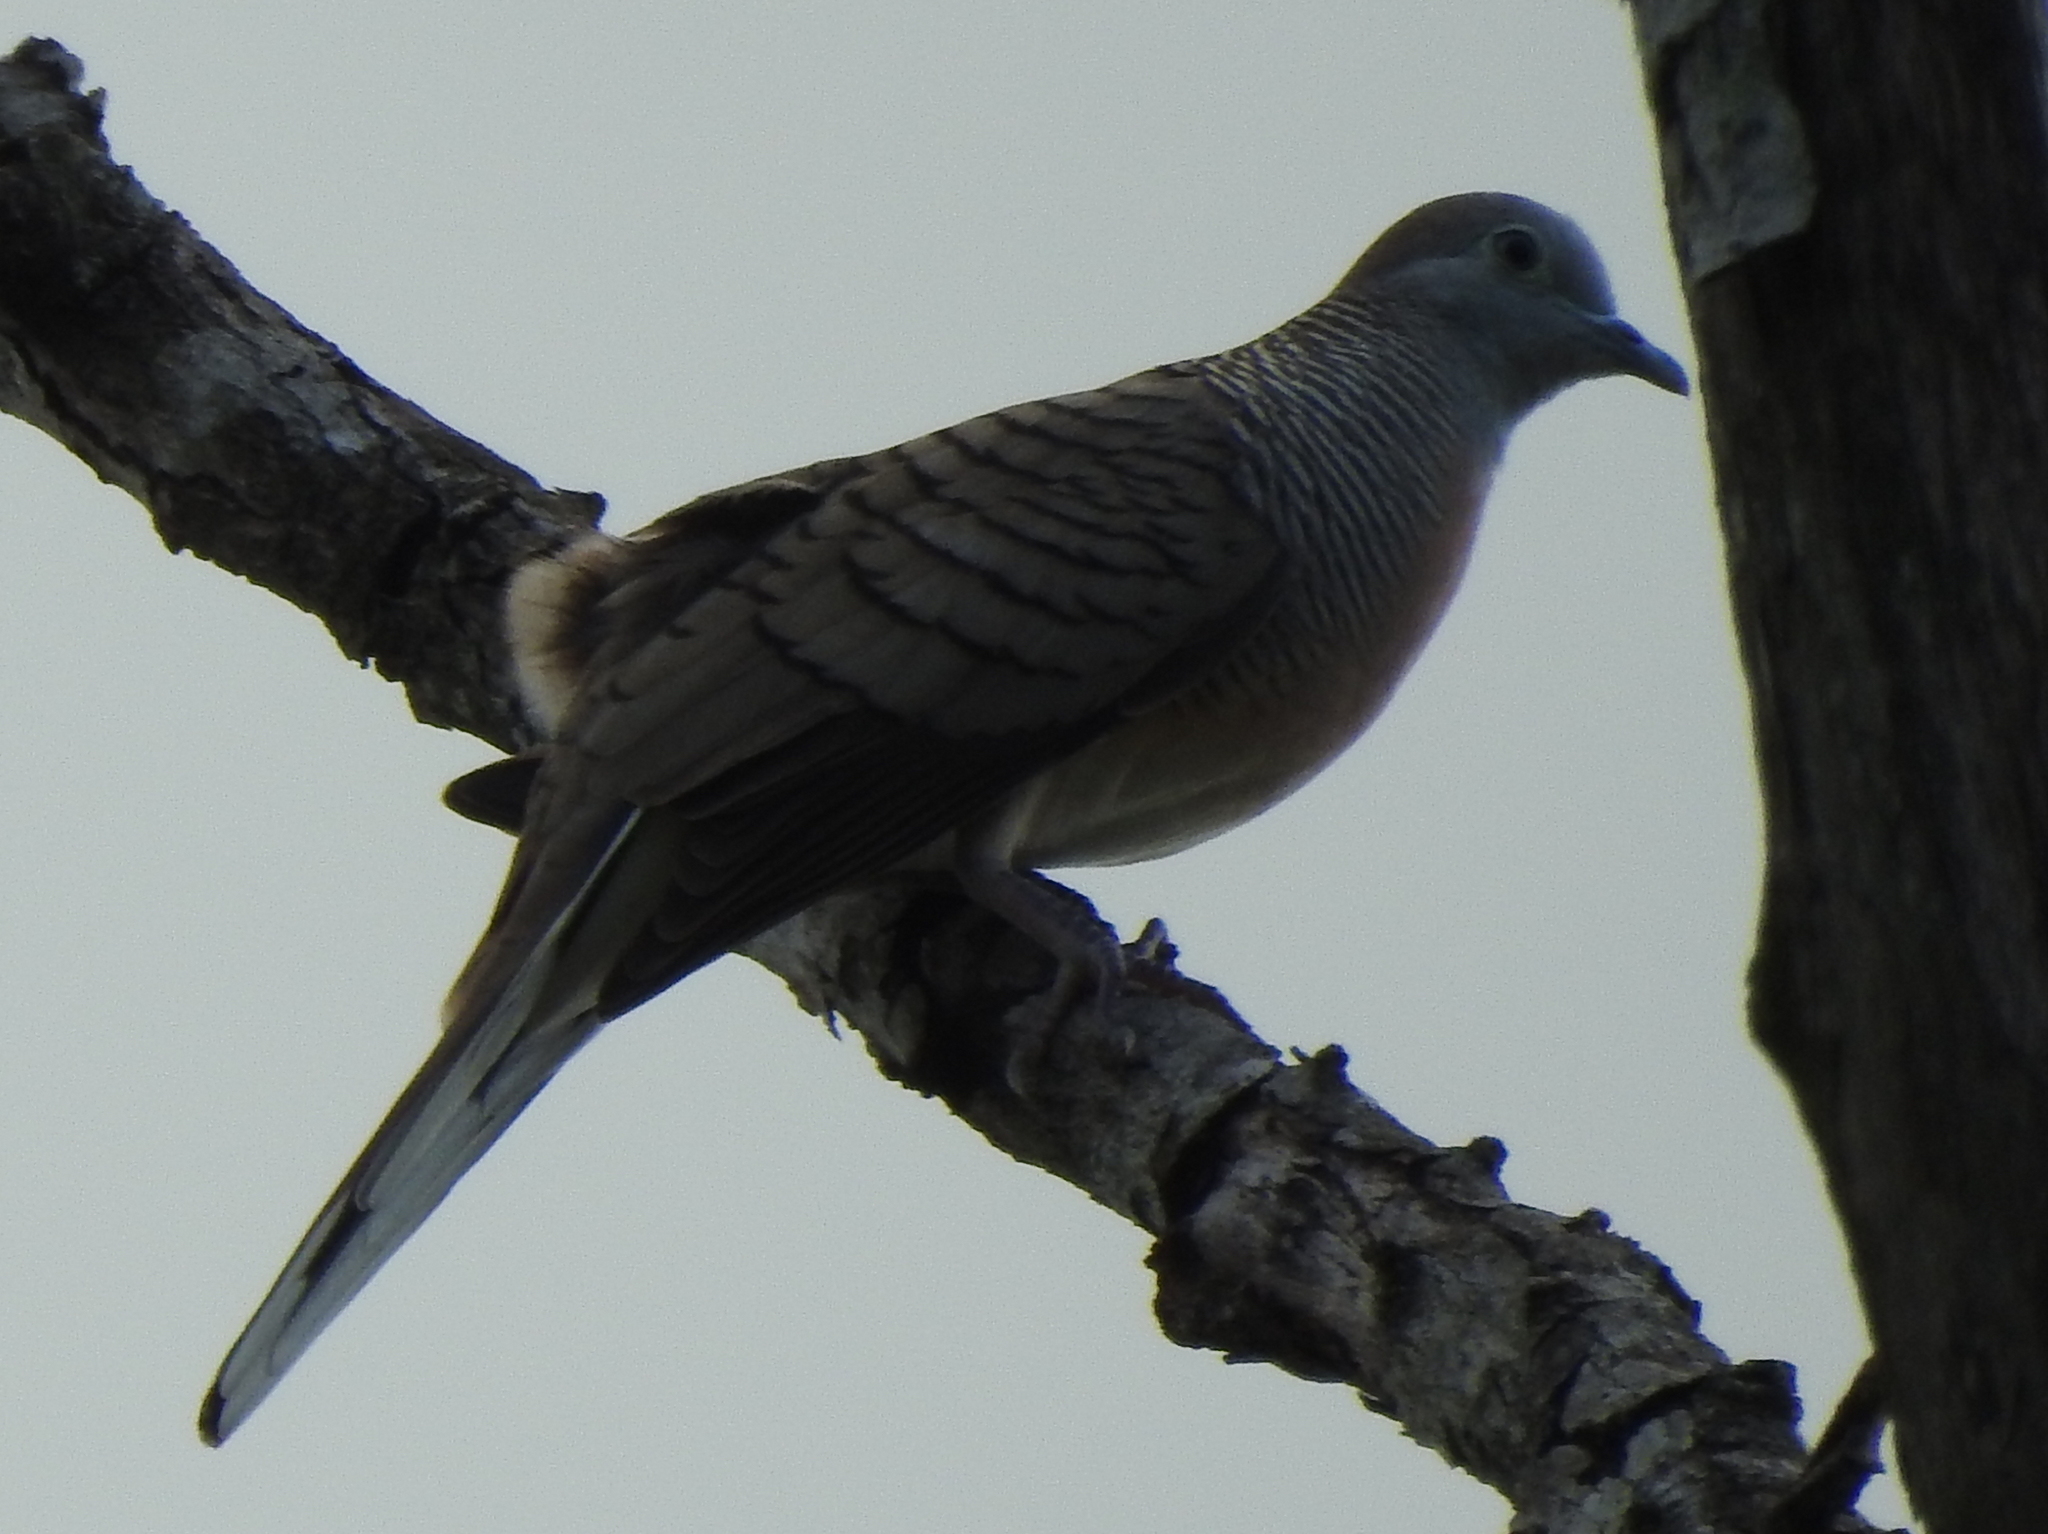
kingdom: Animalia
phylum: Chordata
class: Aves
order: Columbiformes
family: Columbidae
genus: Geopelia
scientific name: Geopelia striata
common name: Zebra dove
